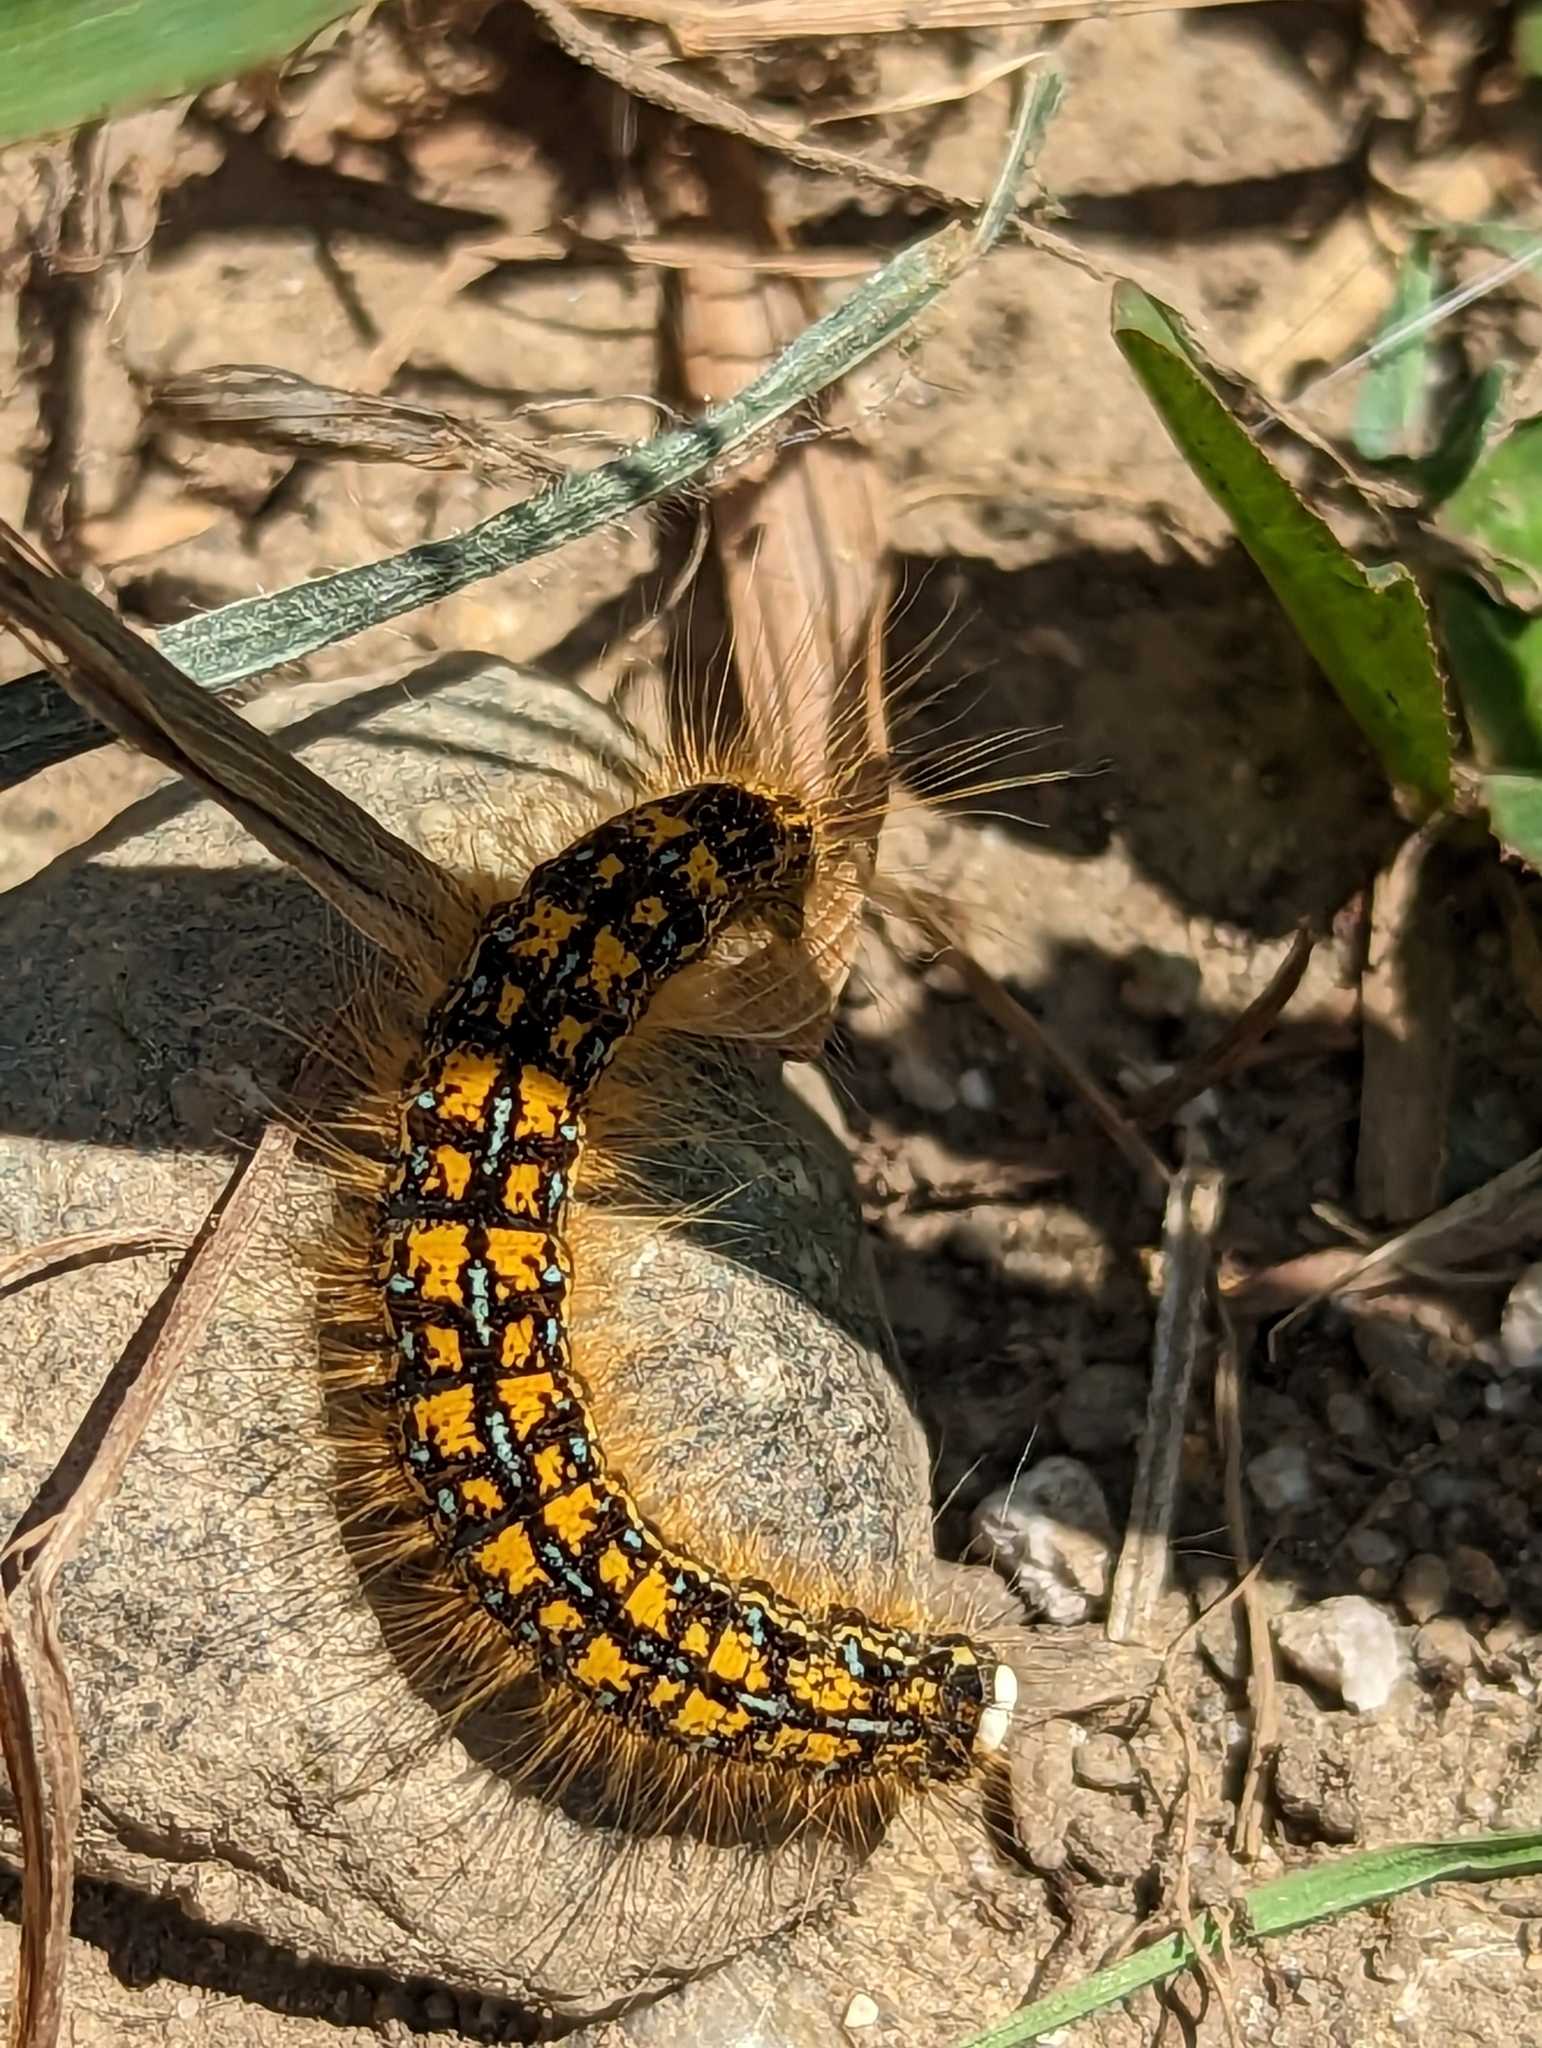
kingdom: Animalia
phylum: Arthropoda
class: Insecta
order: Lepidoptera
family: Lasiocampidae
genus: Malacosoma
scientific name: Malacosoma californica
